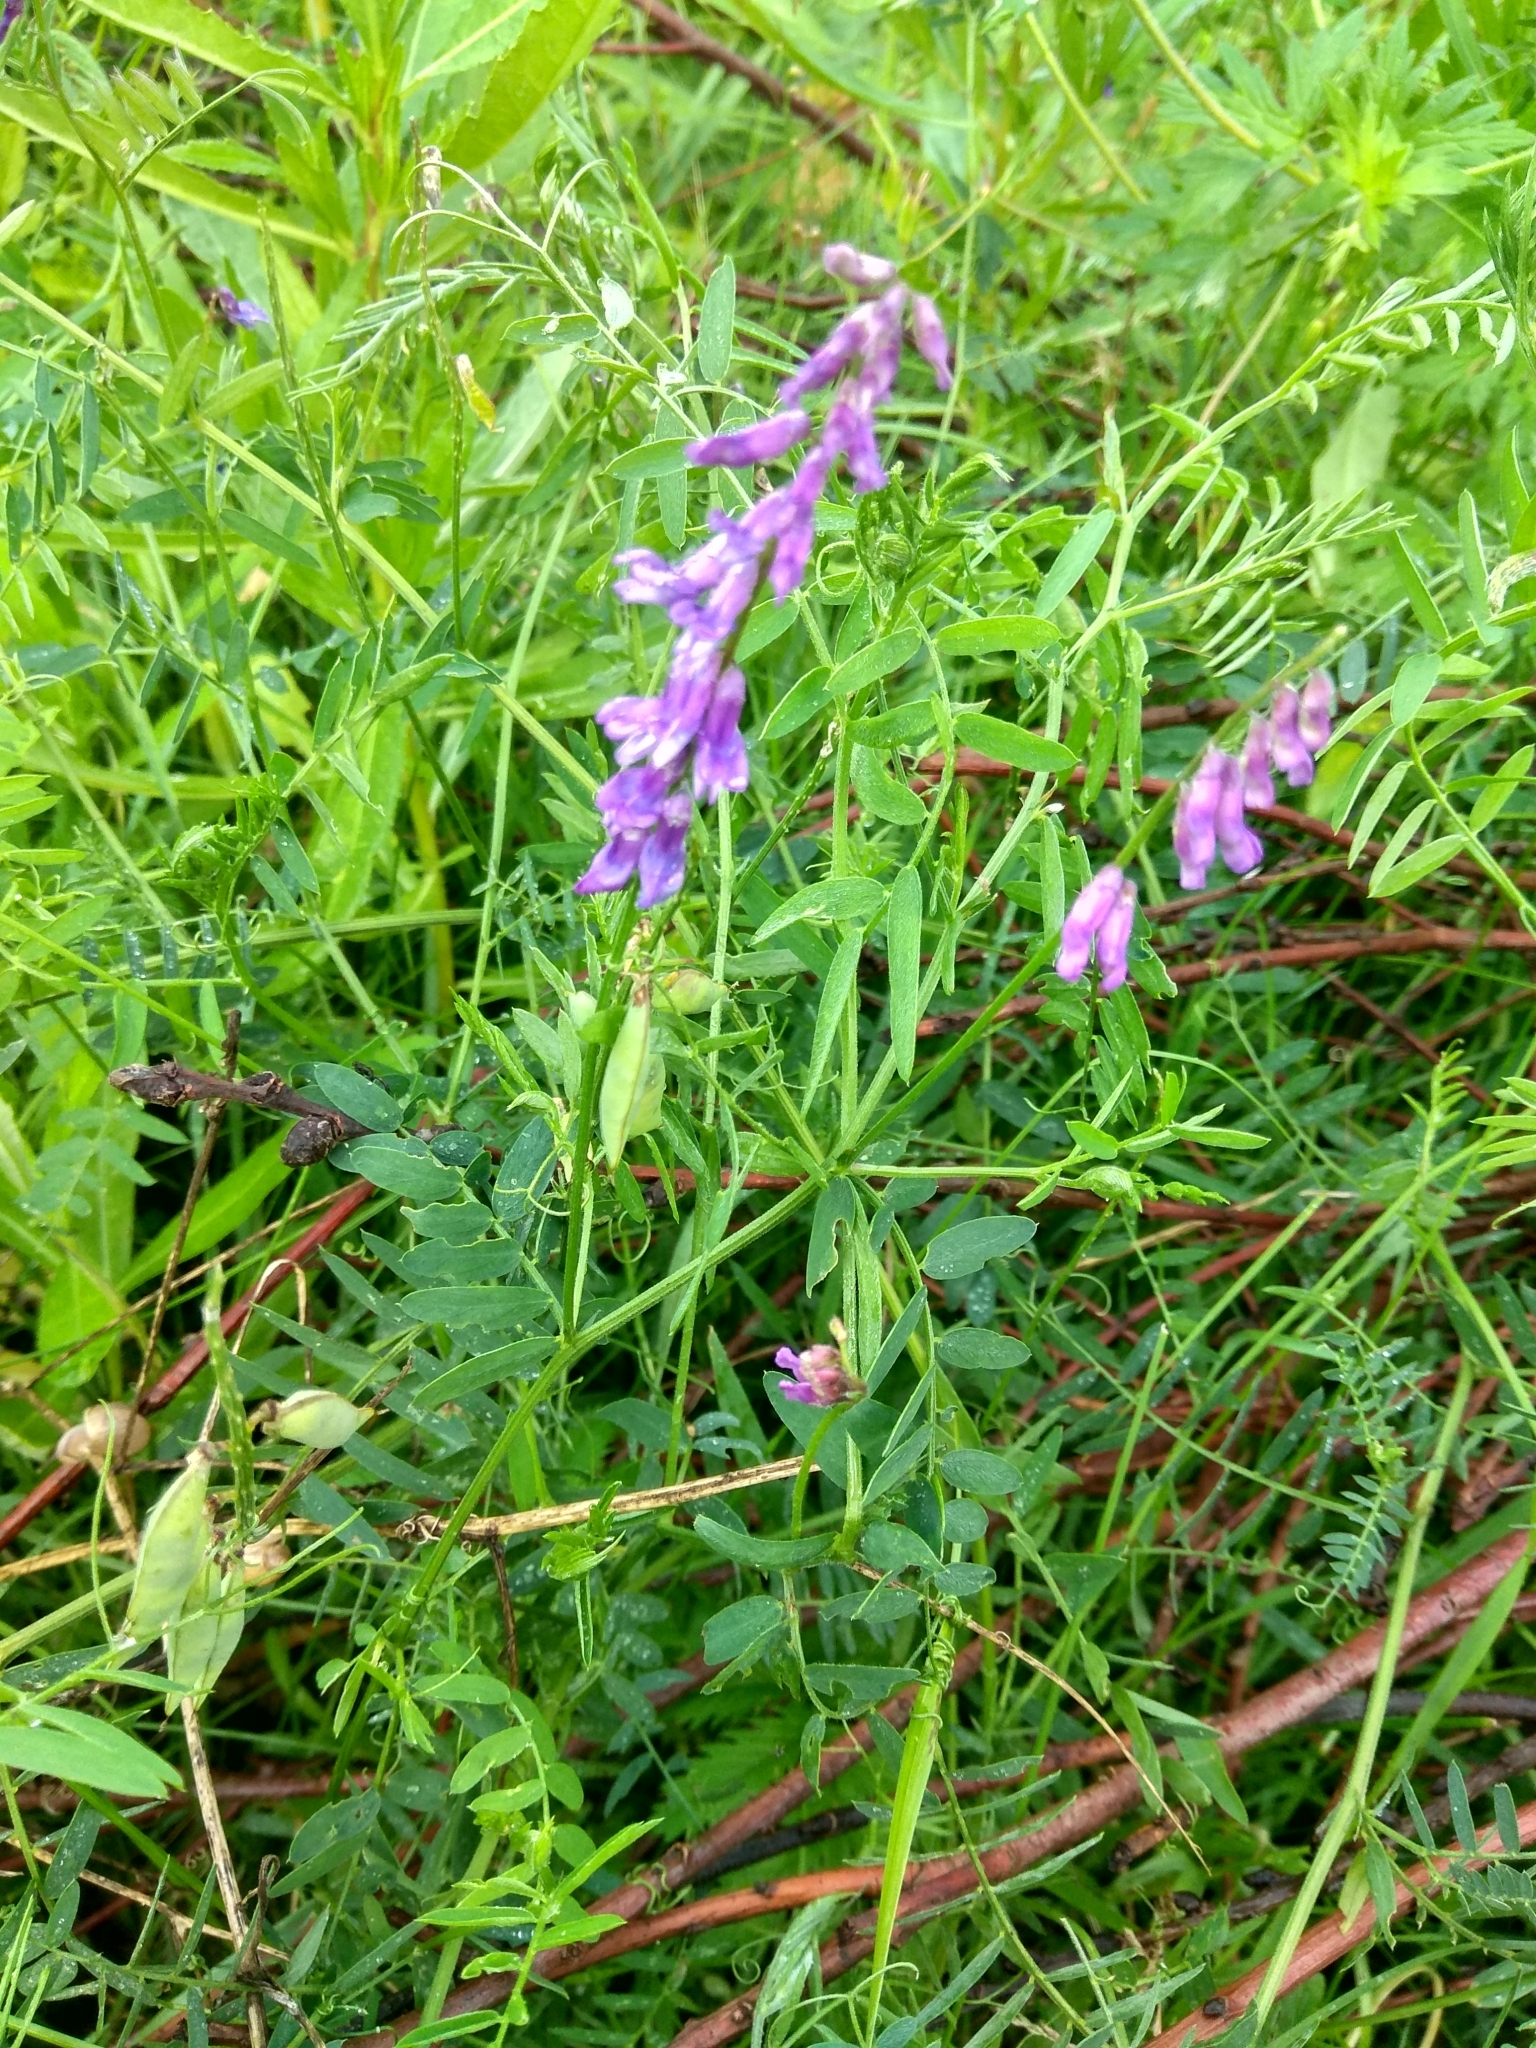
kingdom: Plantae
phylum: Tracheophyta
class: Magnoliopsida
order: Fabales
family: Fabaceae
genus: Vicia
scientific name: Vicia cracca
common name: Bird vetch
